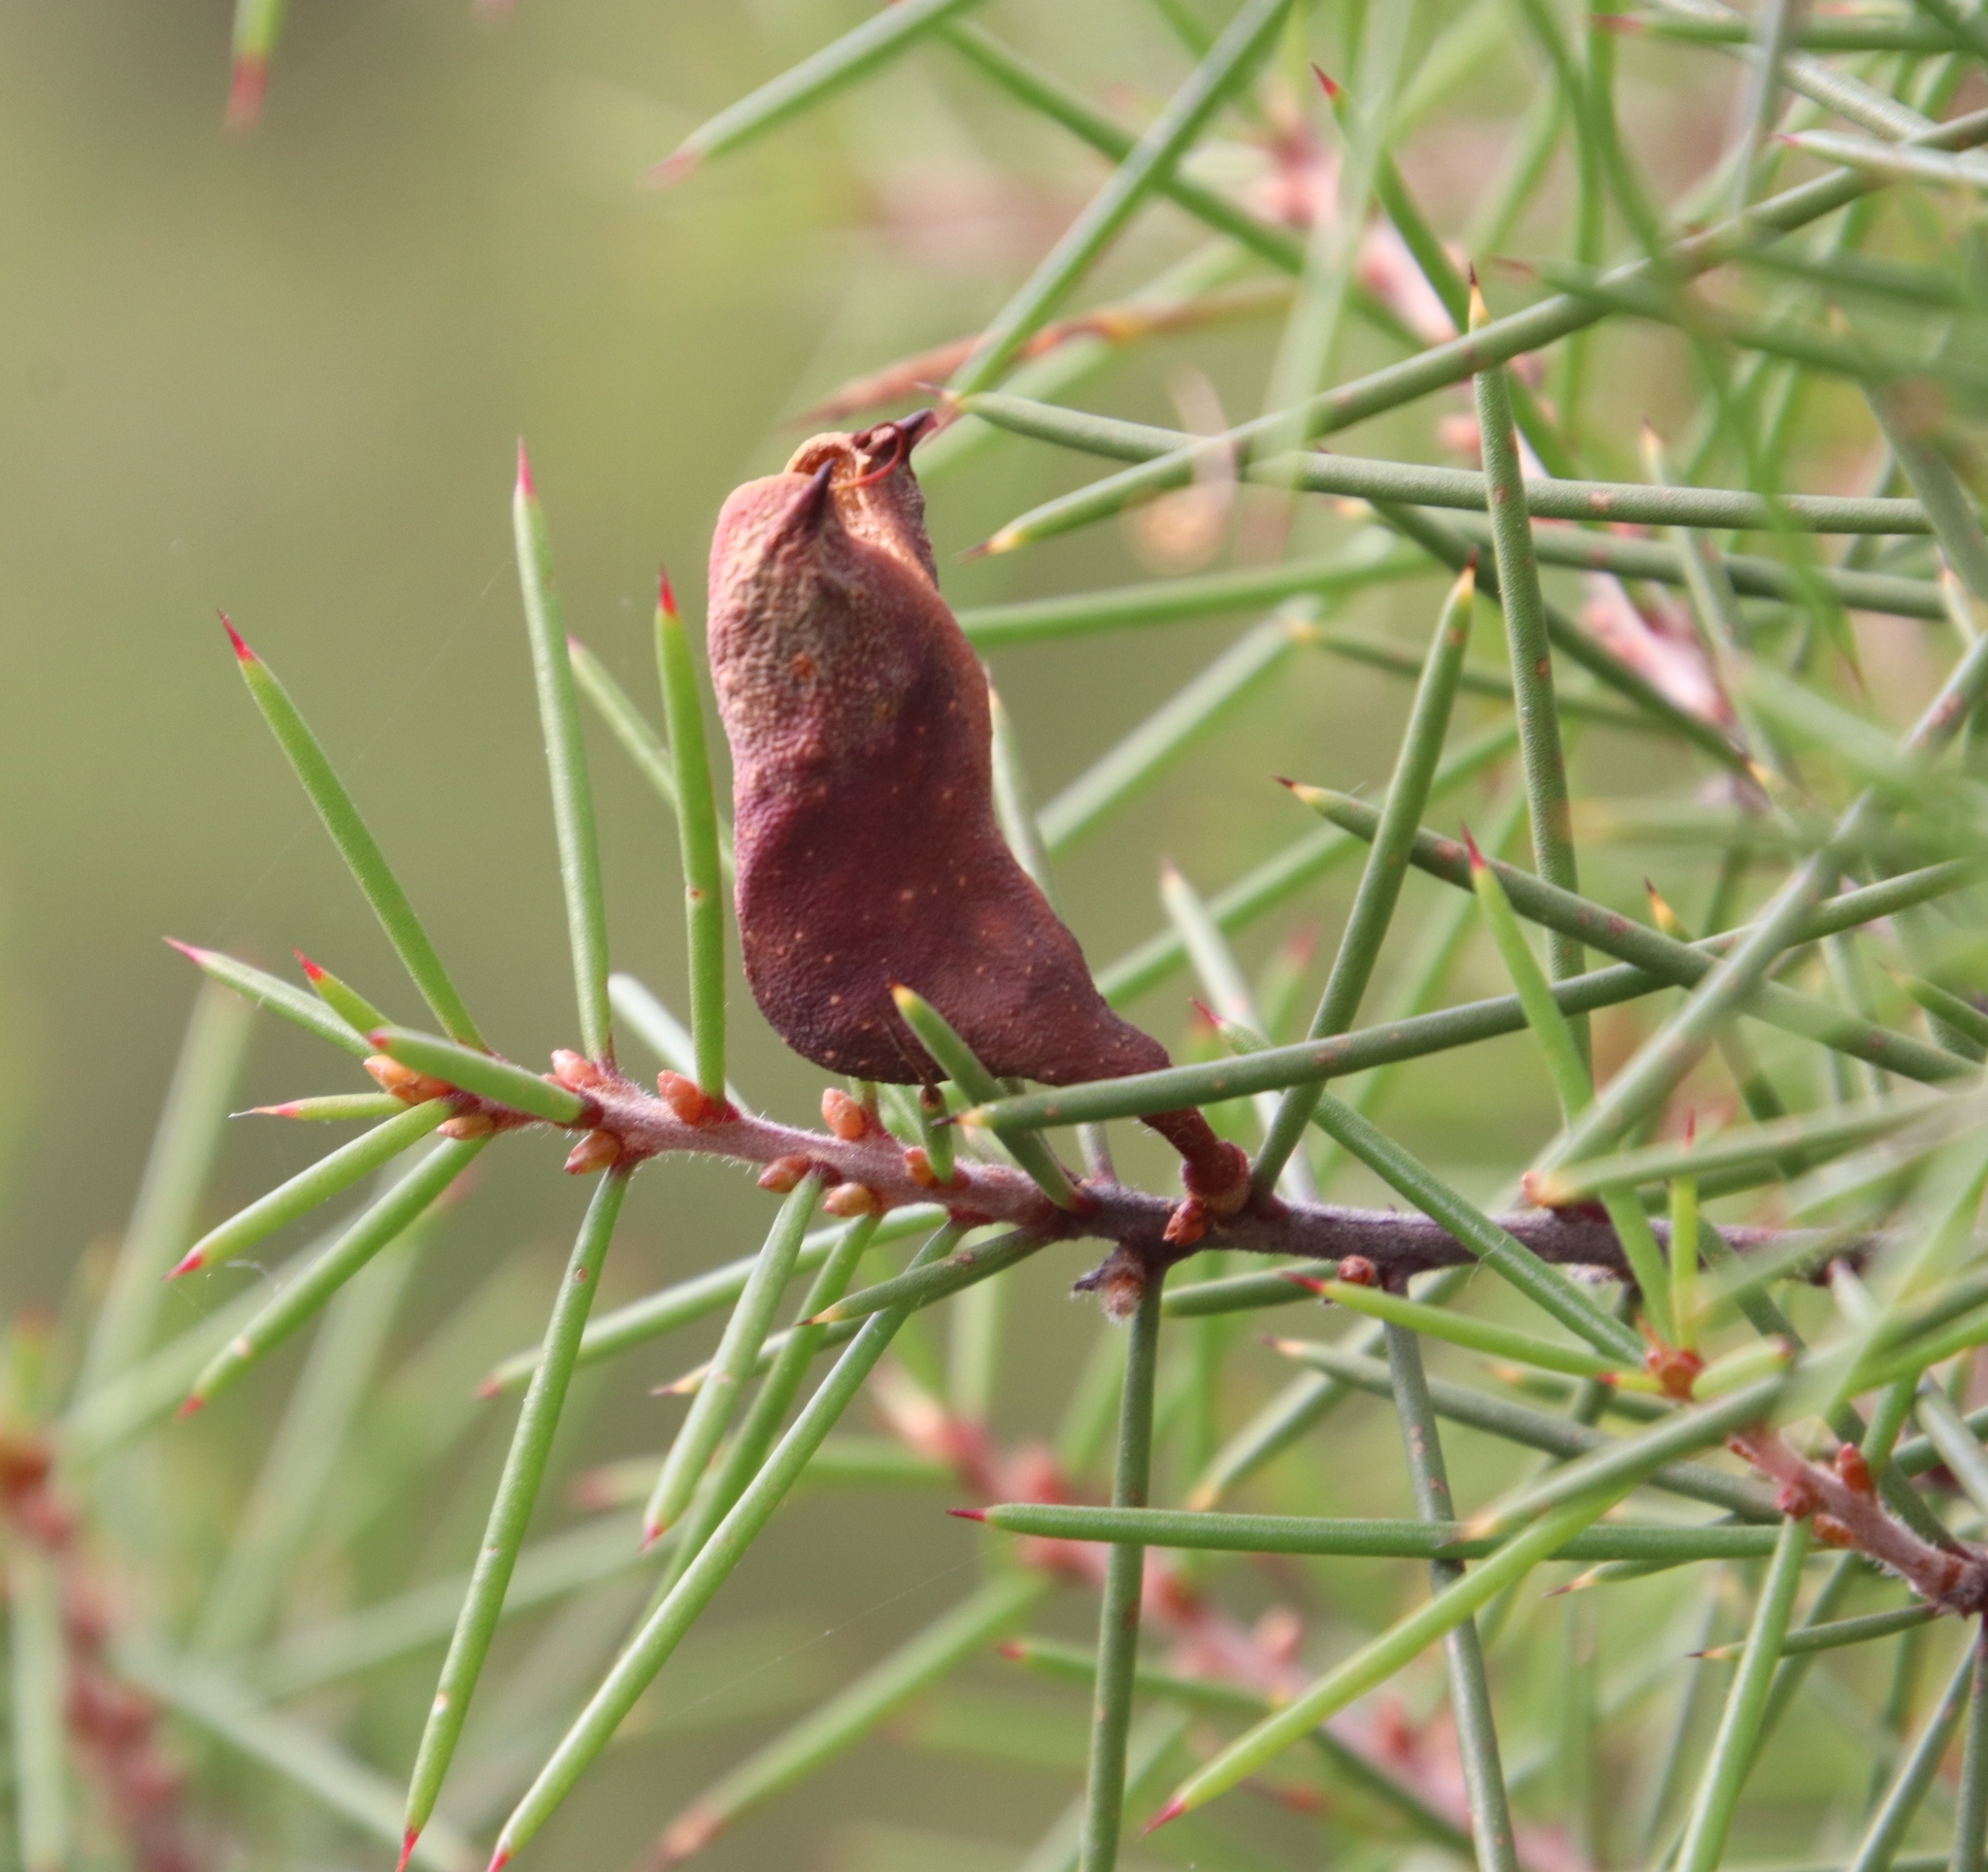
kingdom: Plantae
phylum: Tracheophyta
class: Magnoliopsida
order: Proteales
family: Proteaceae
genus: Hakea
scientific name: Hakea sericea
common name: Needle bush
